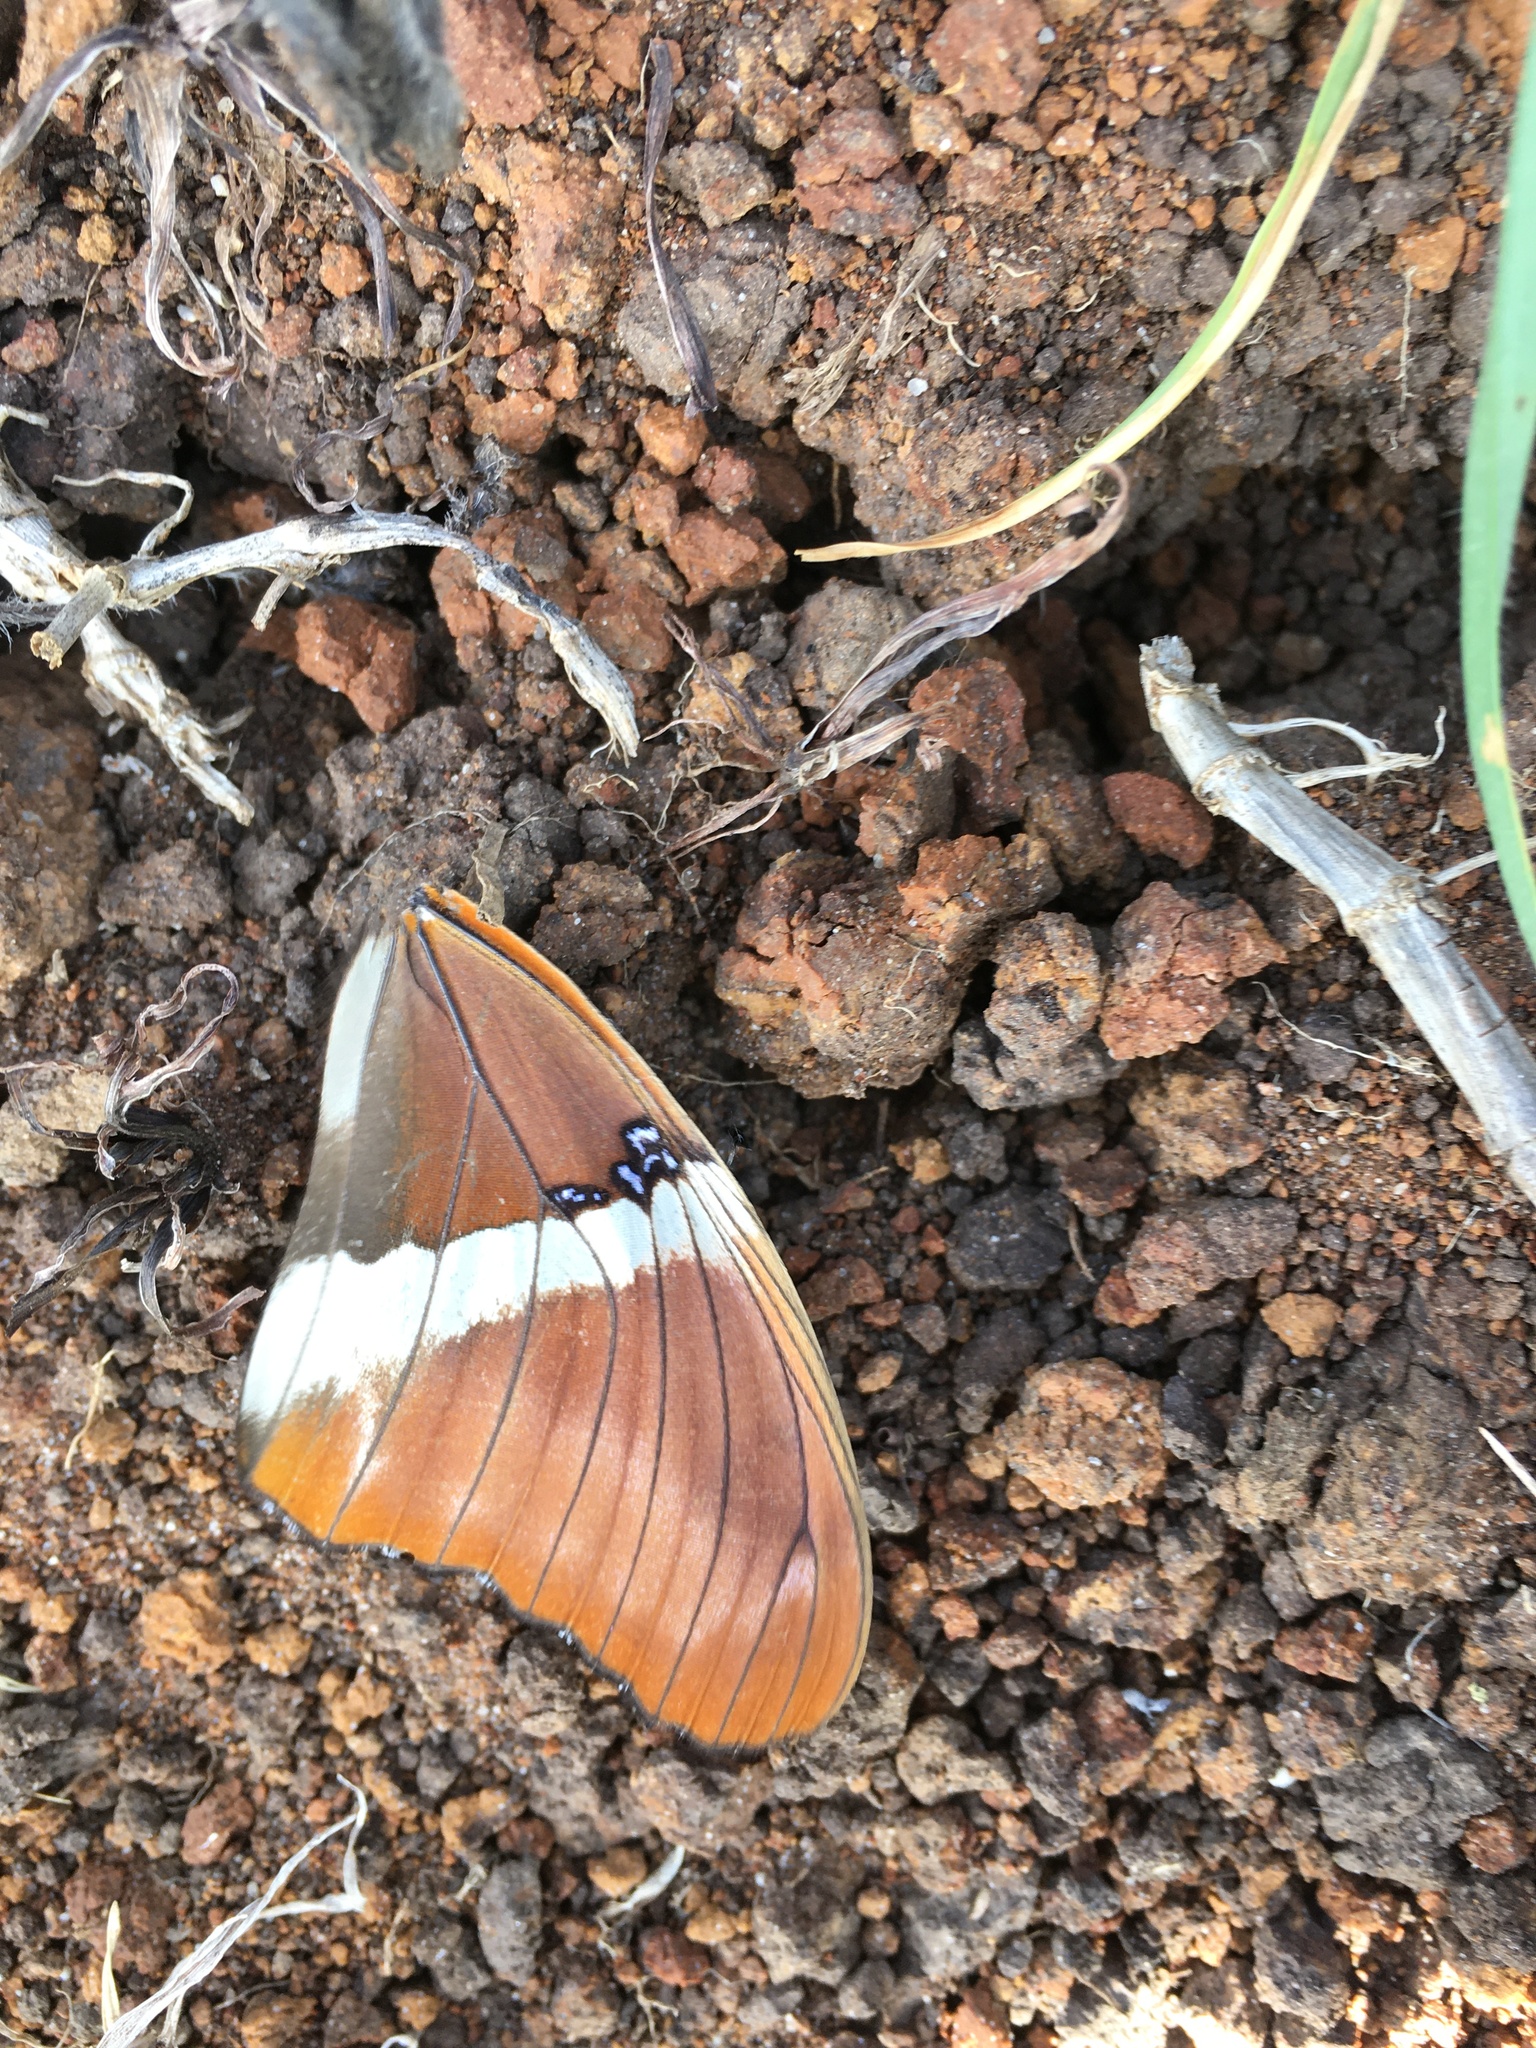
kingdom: Animalia
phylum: Arthropoda
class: Insecta
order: Lepidoptera
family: Nymphalidae
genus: Siproeta
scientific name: Siproeta epaphus
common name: Rusty-tipped page
